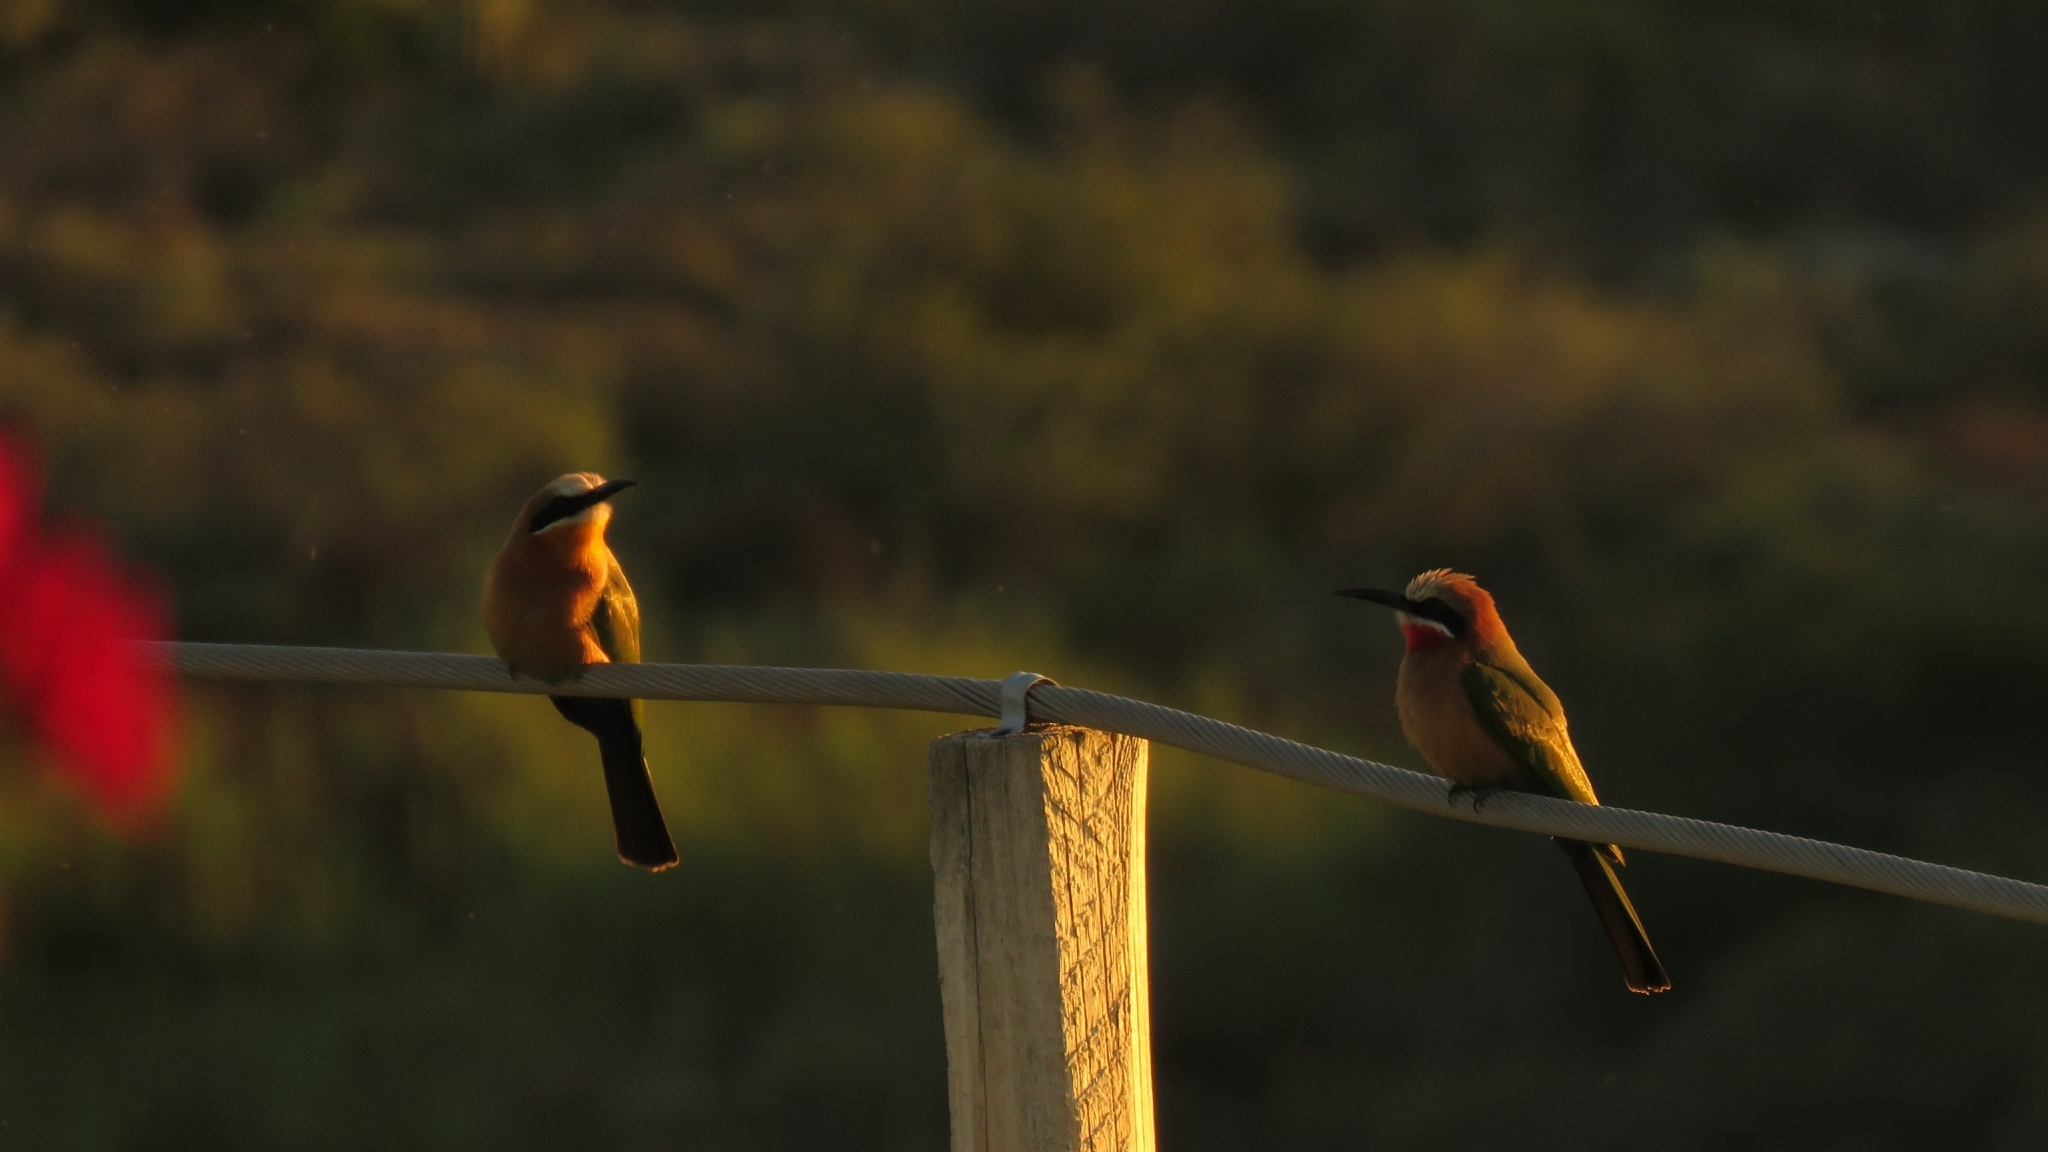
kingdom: Animalia
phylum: Chordata
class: Aves
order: Coraciiformes
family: Meropidae
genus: Merops
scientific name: Merops bullockoides
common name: White-fronted bee-eater
